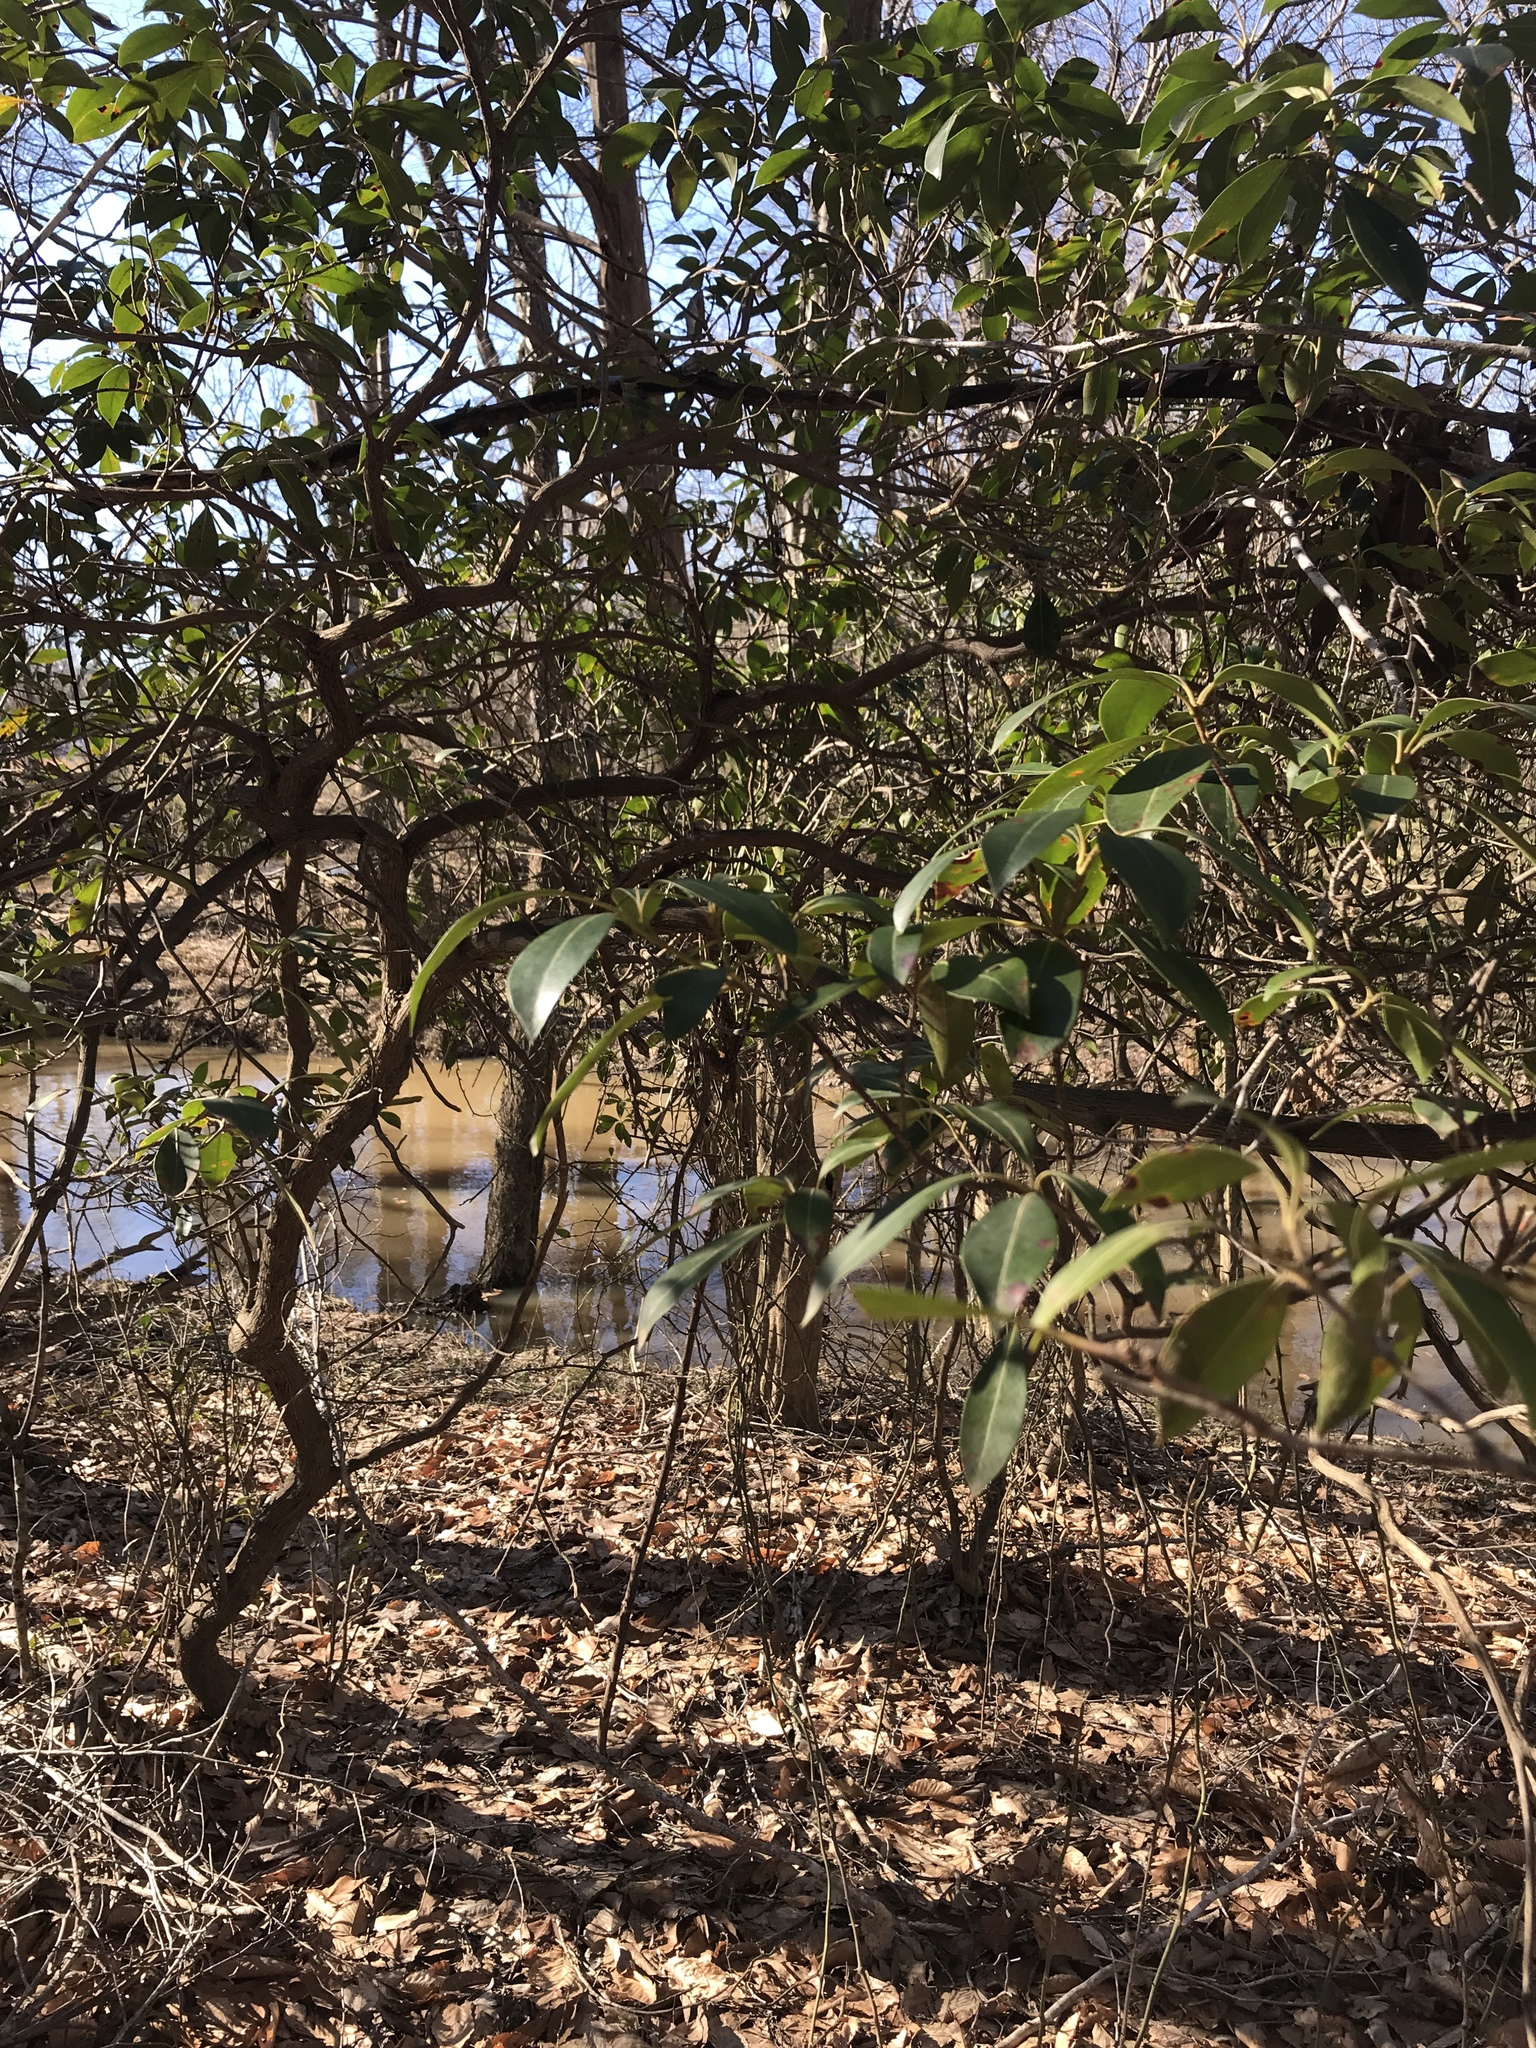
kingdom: Plantae
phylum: Tracheophyta
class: Magnoliopsida
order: Ericales
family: Ericaceae
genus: Kalmia
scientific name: Kalmia latifolia
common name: Mountain-laurel
